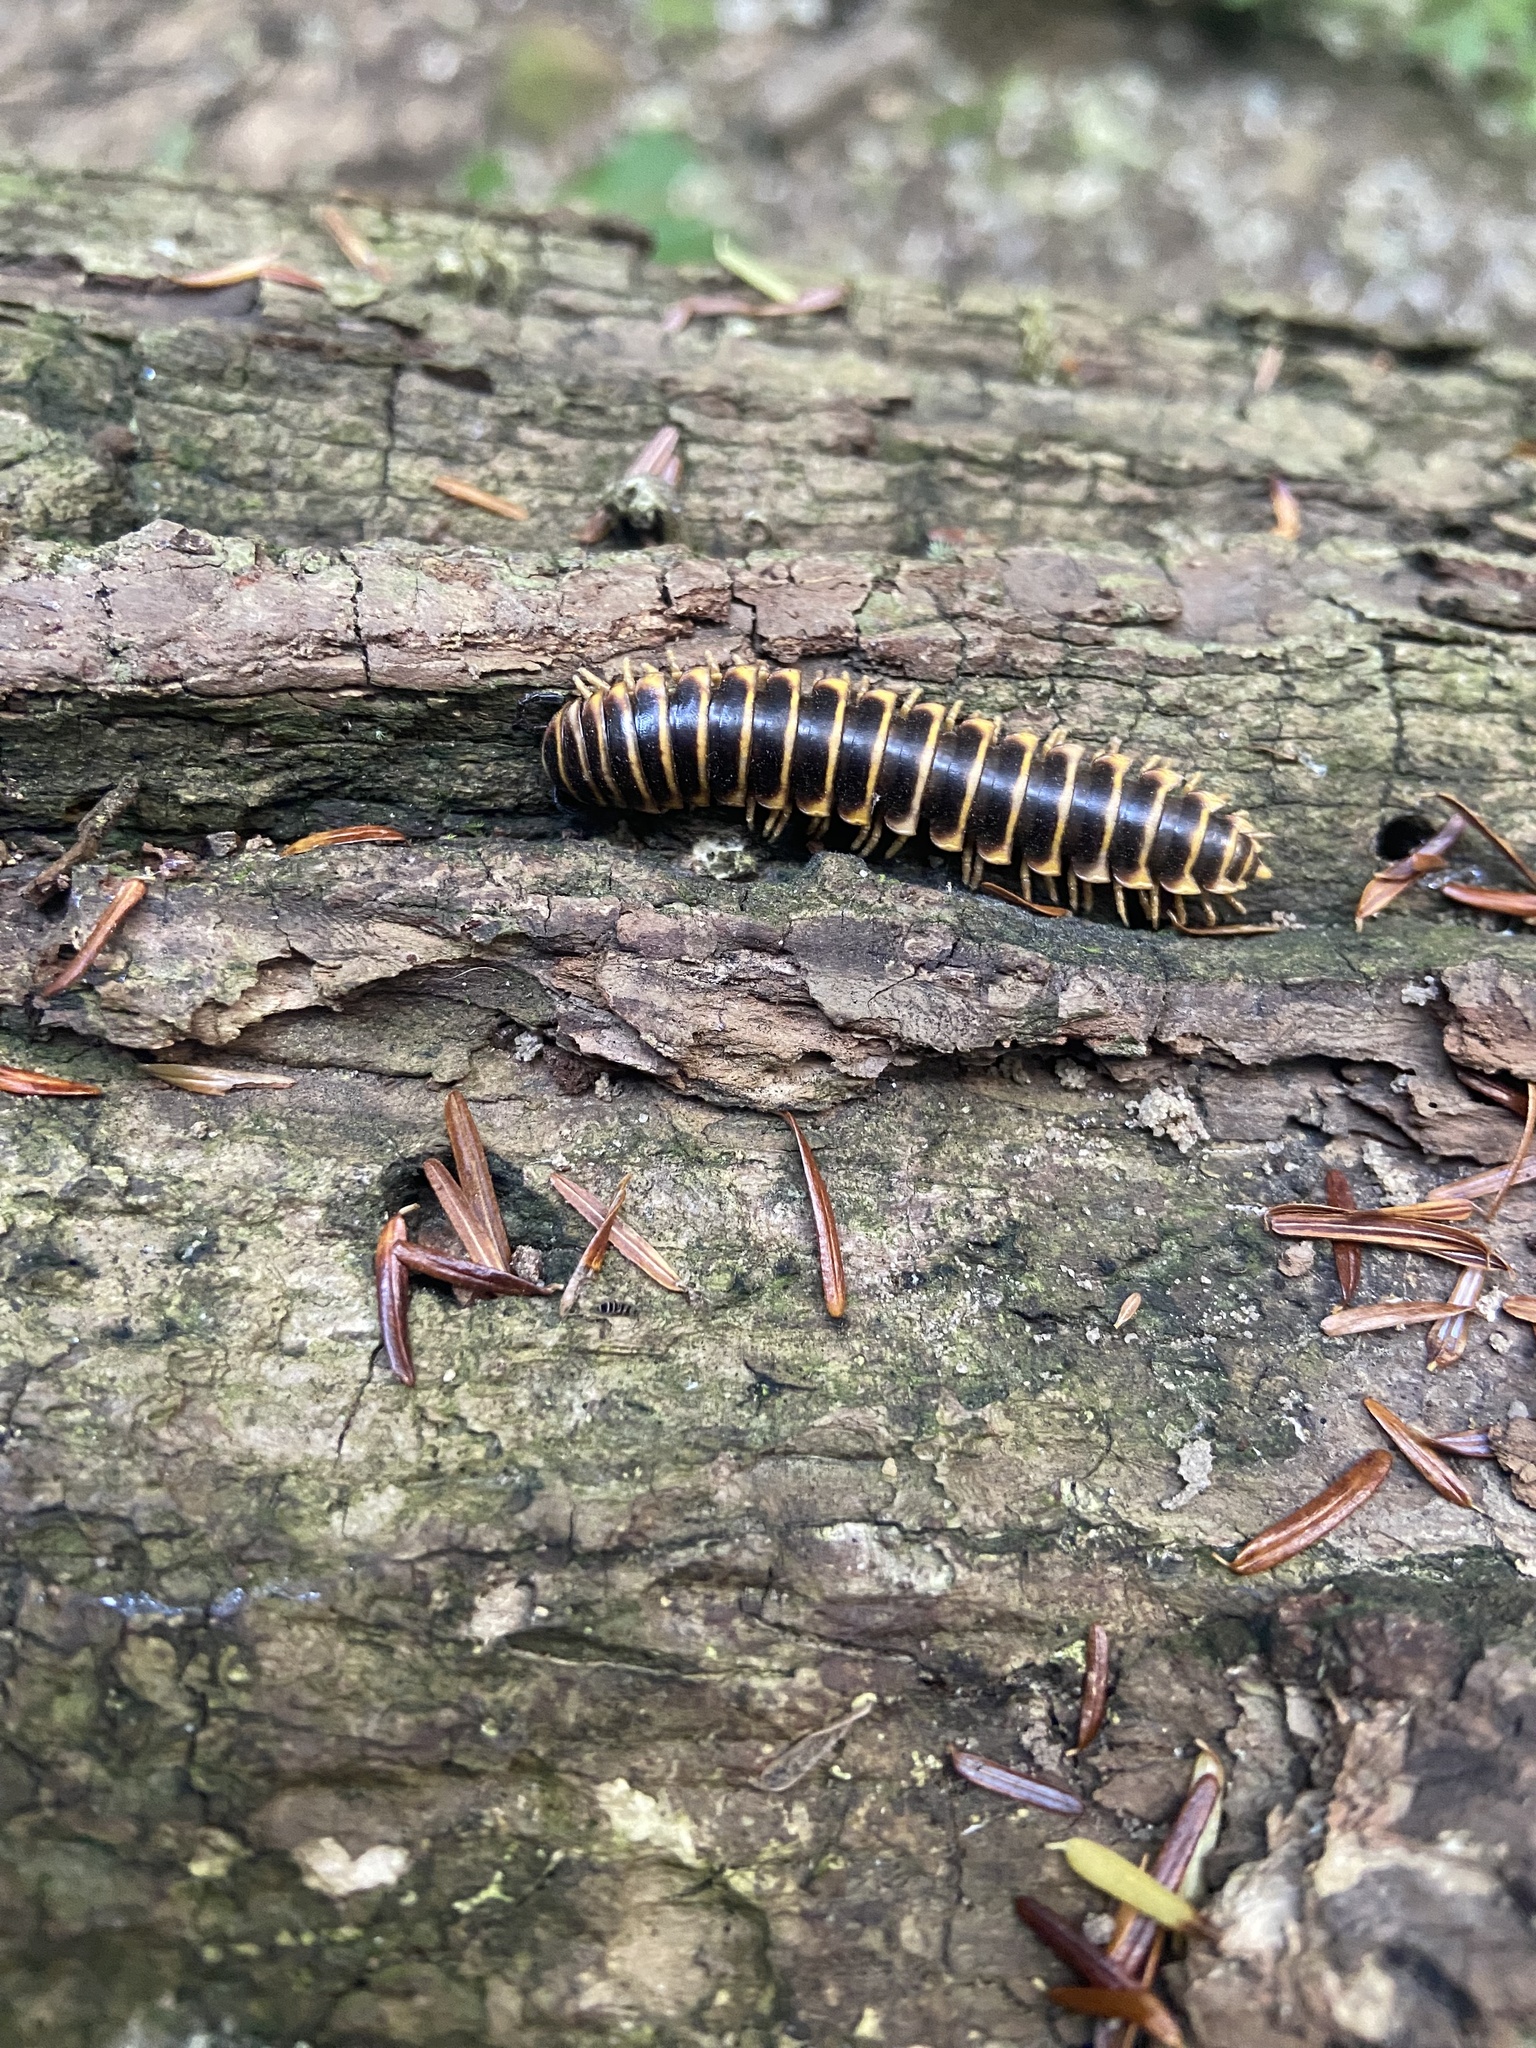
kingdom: Animalia
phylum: Arthropoda
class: Diplopoda
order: Polydesmida
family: Xystodesmidae
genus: Apheloria
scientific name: Apheloria virginiensis
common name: Black-and-gold flat millipede
